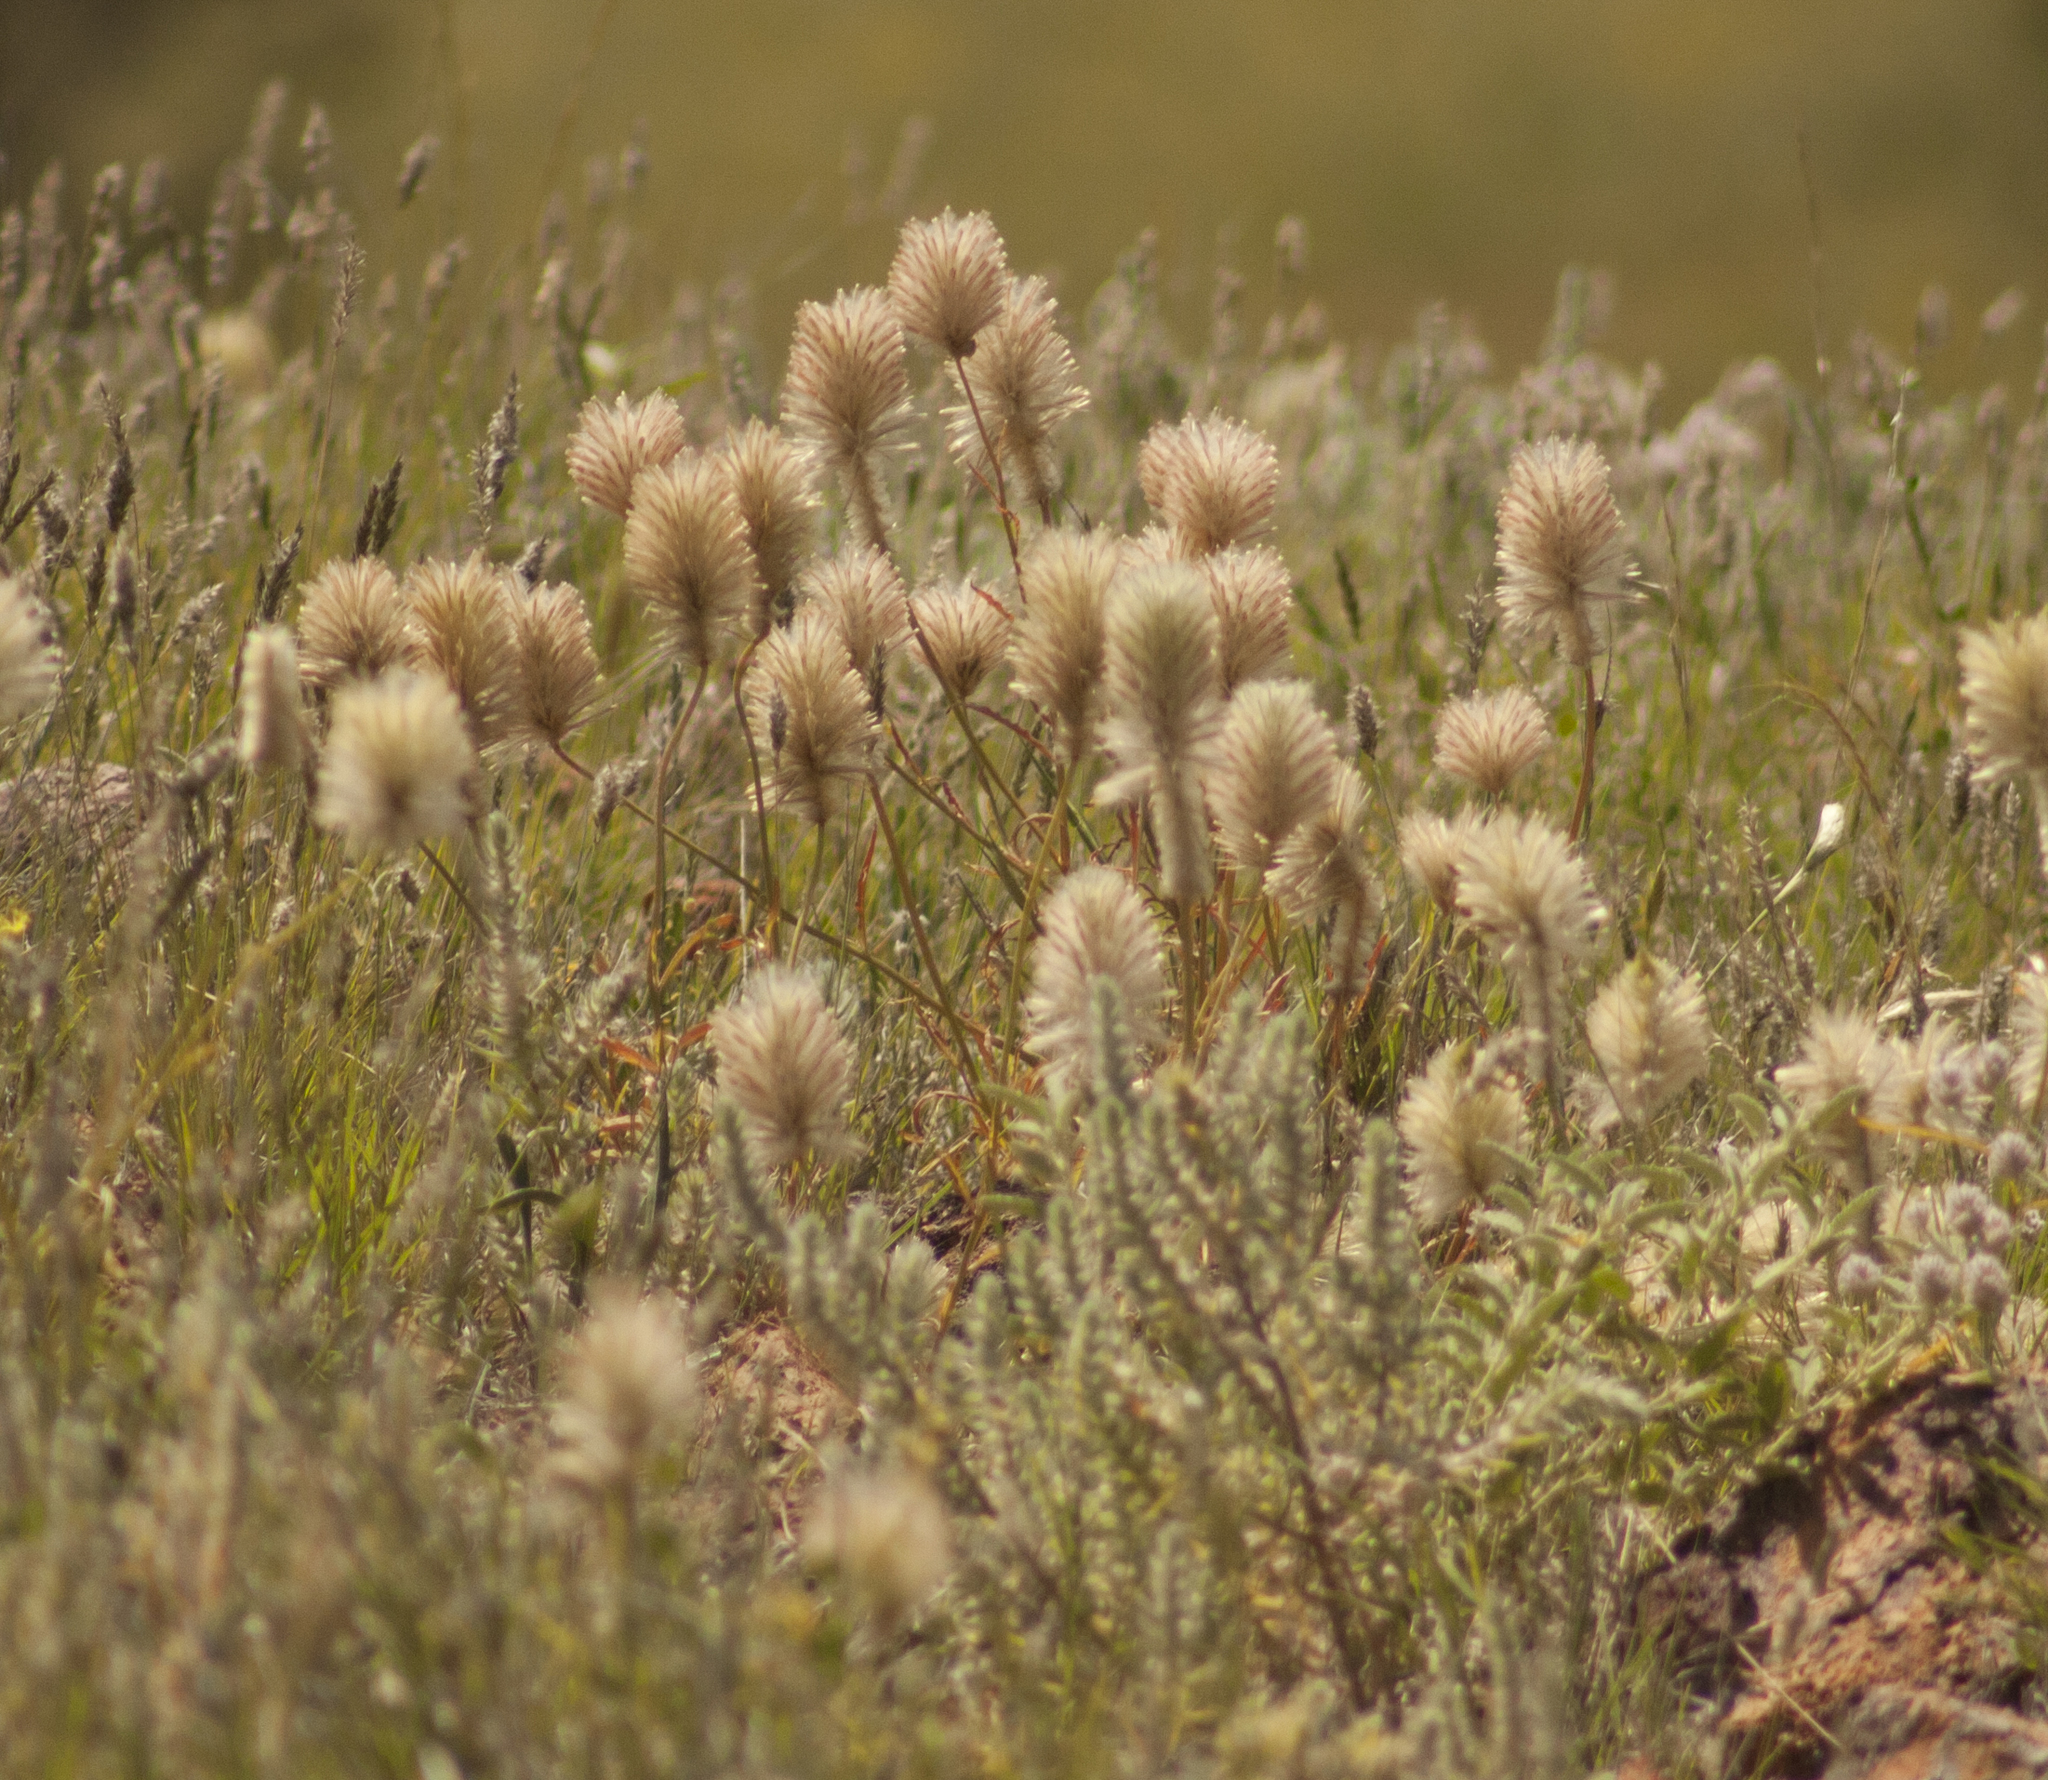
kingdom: Plantae
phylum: Tracheophyta
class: Magnoliopsida
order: Caryophyllales
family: Amaranthaceae
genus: Ptilotus
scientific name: Ptilotus xerophilus
